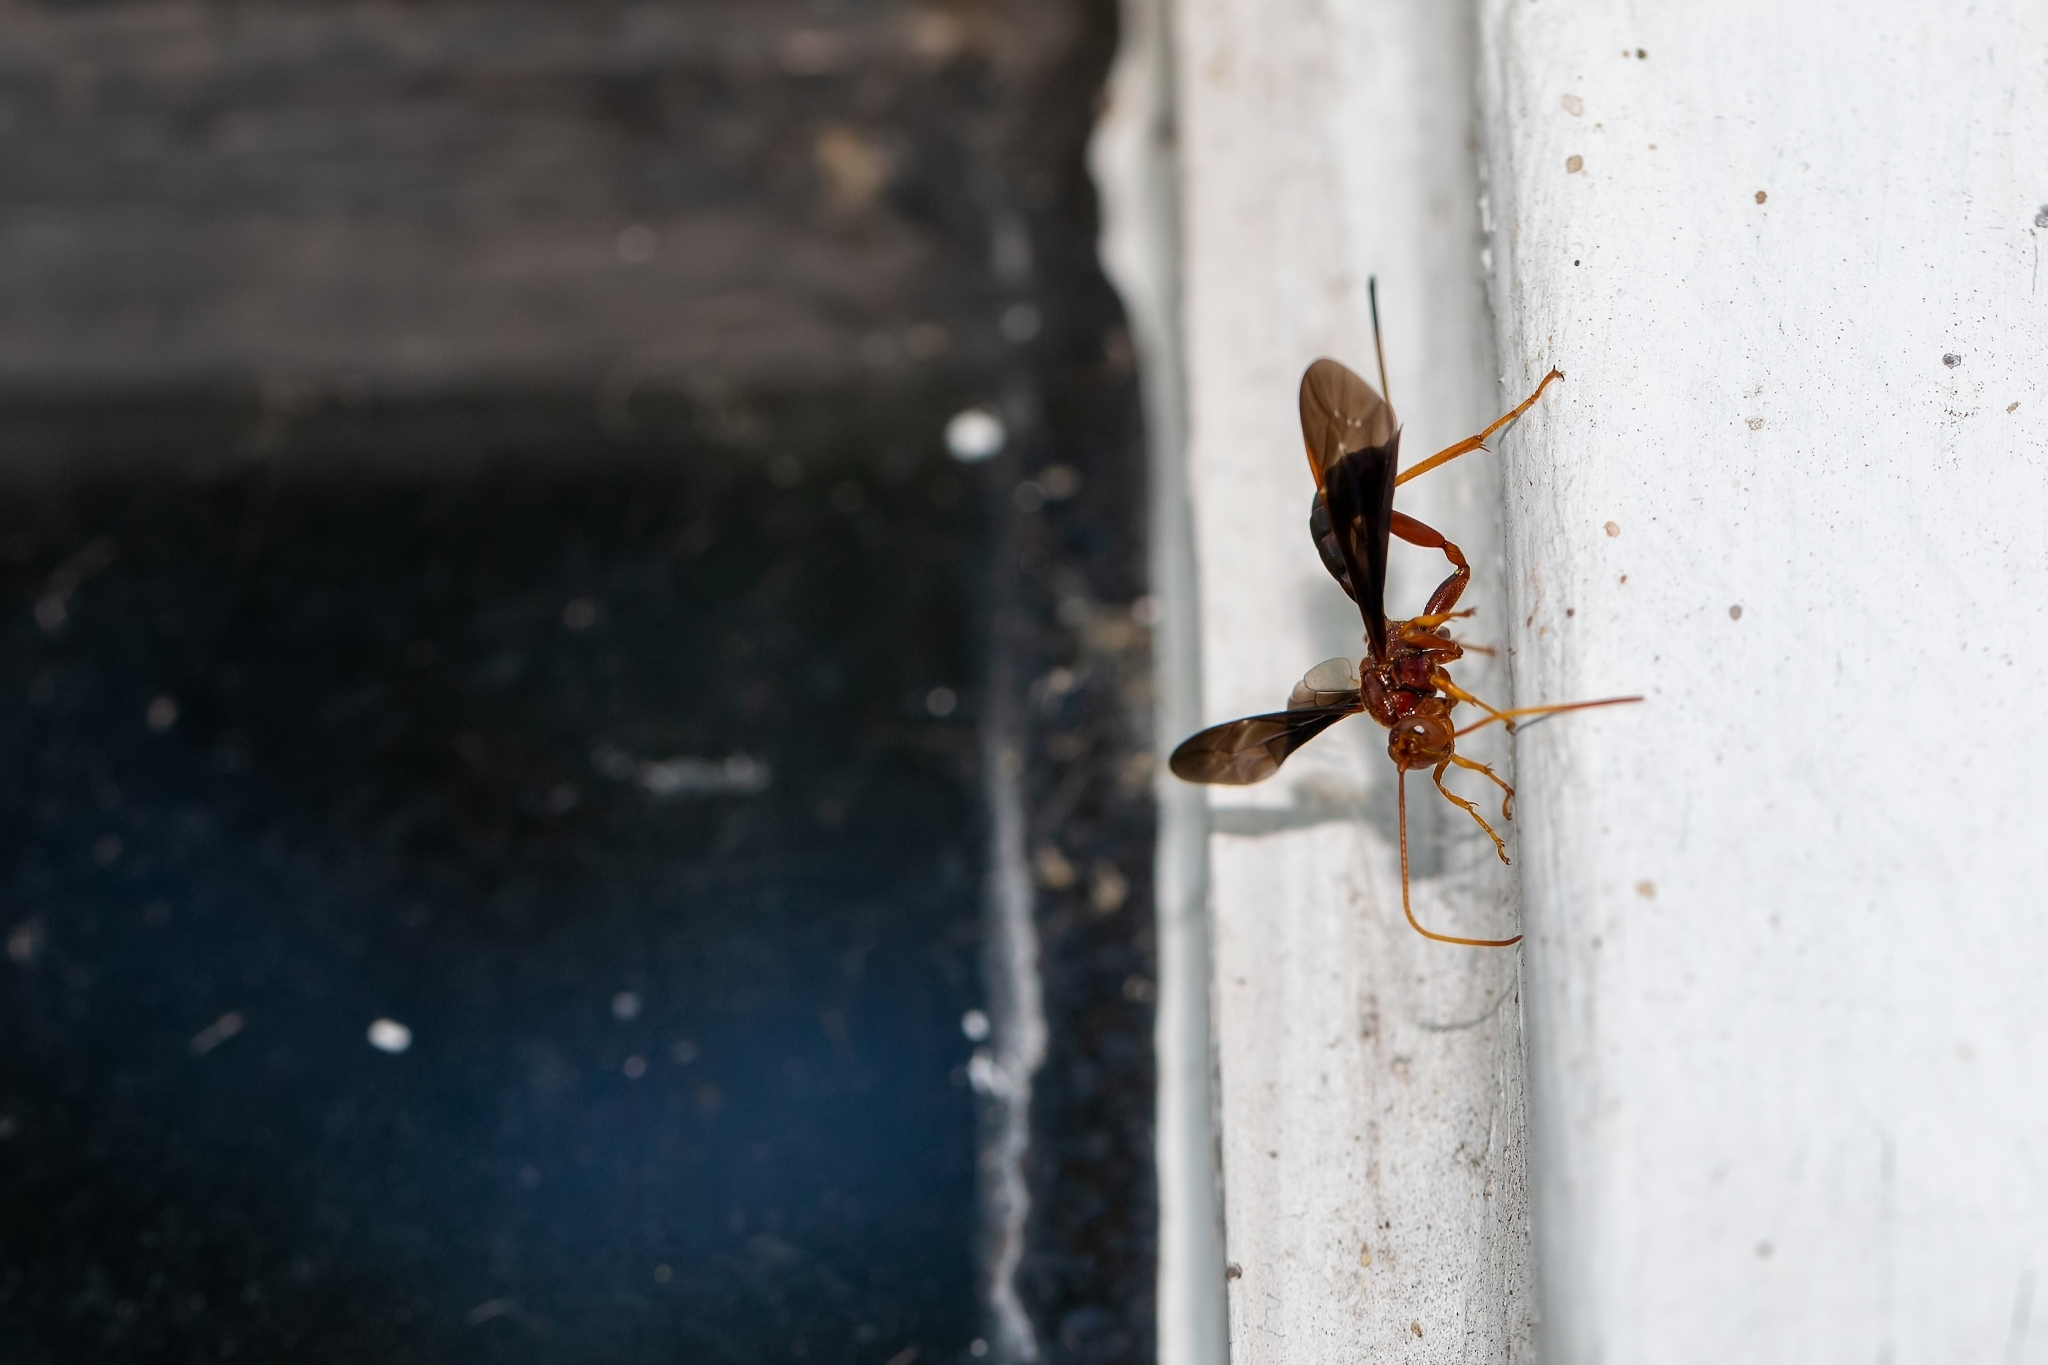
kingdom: Animalia
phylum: Arthropoda
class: Insecta
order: Hymenoptera
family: Ichneumonidae
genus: Labena
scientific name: Labena grallator
